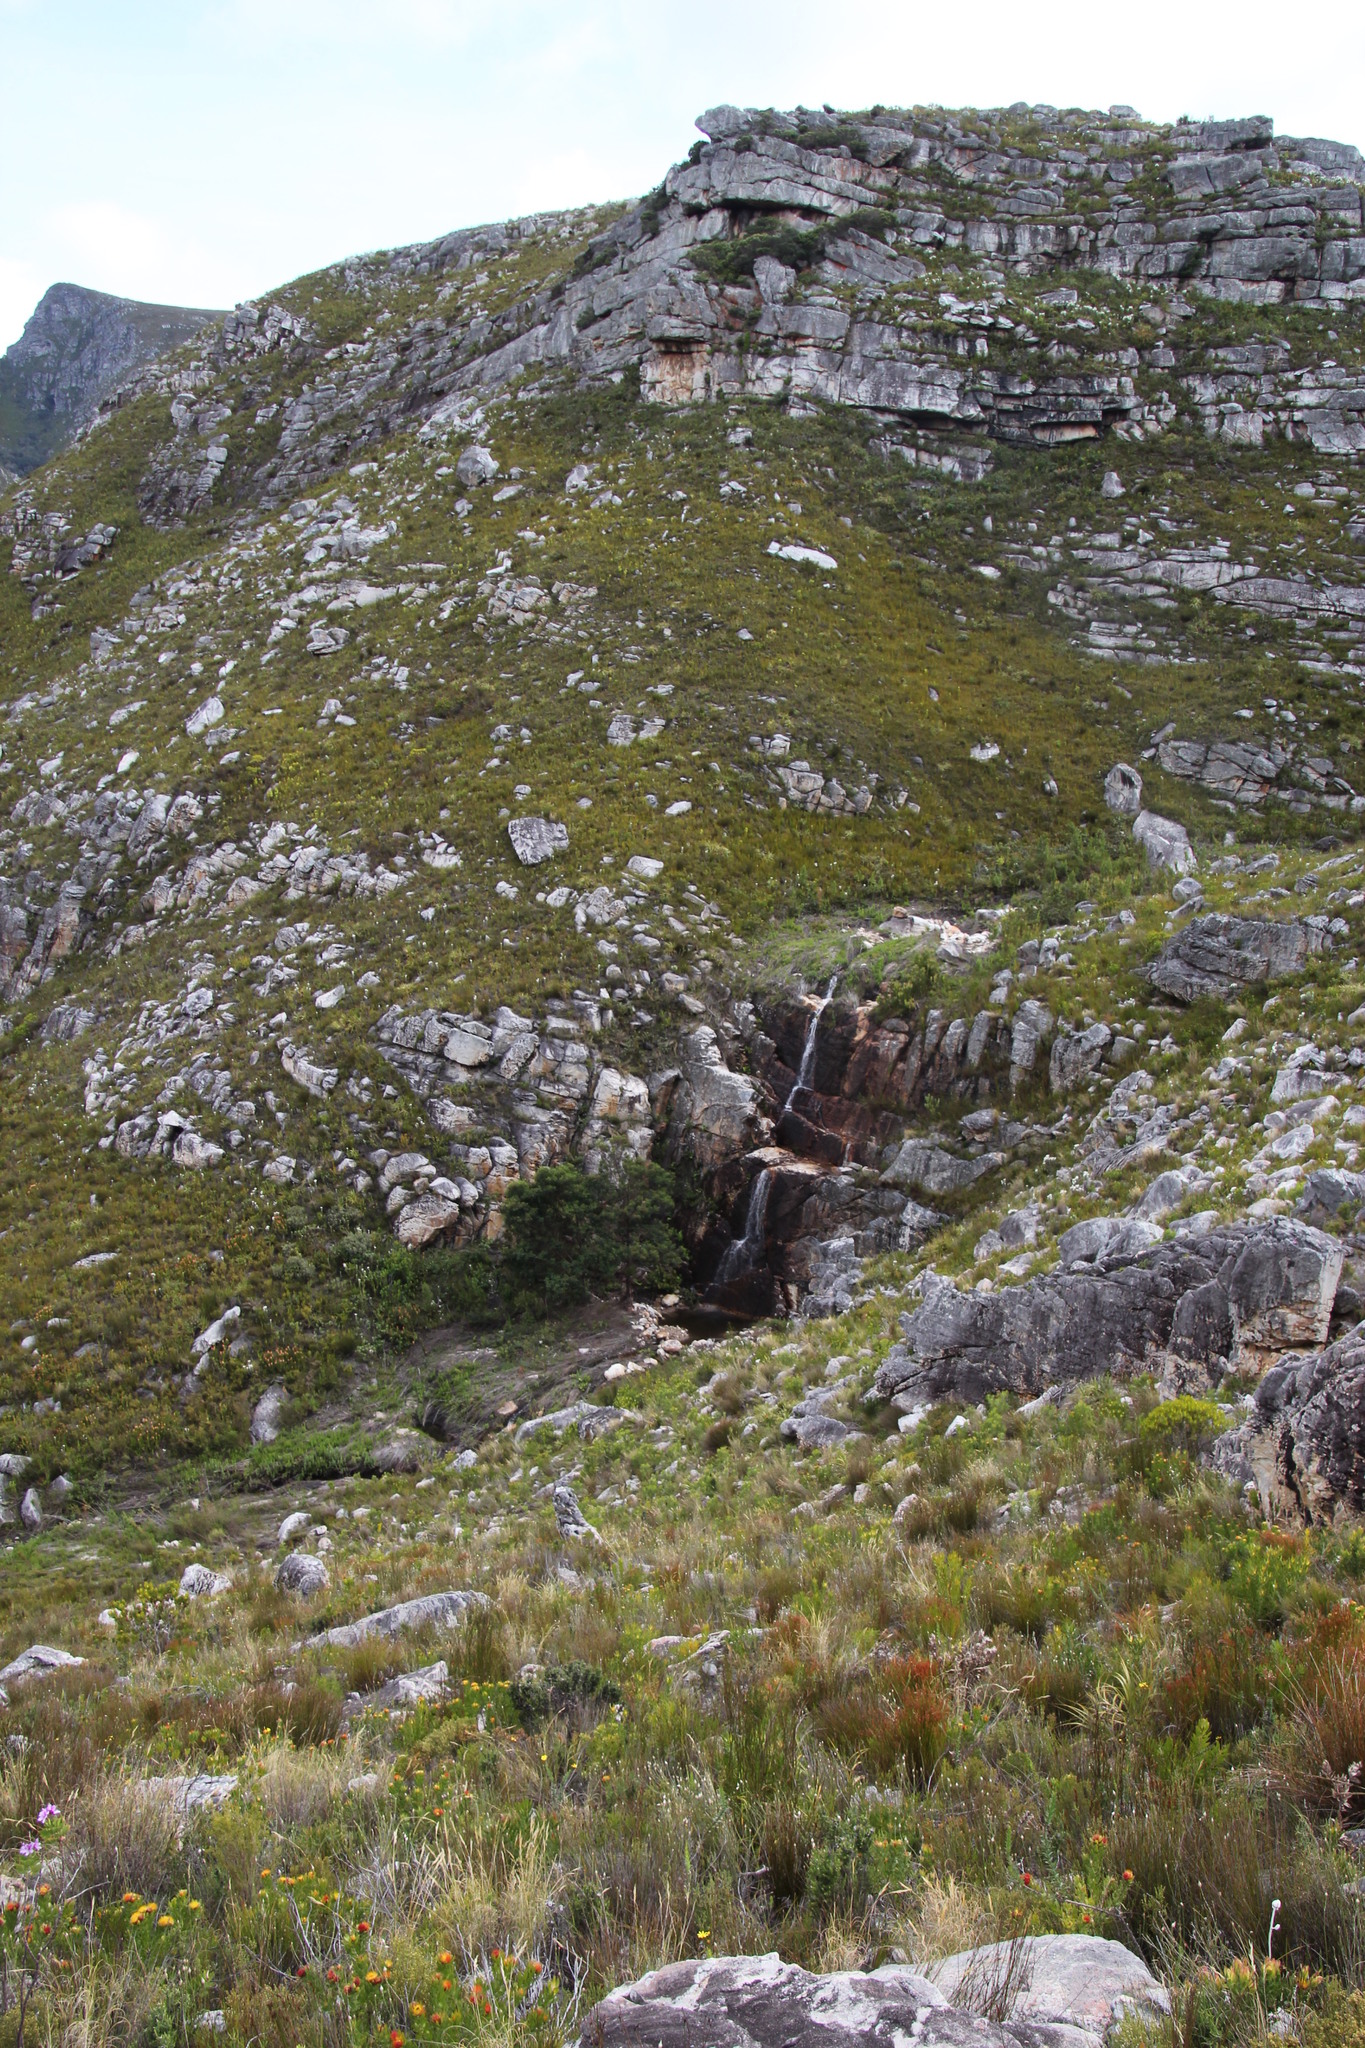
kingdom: Plantae
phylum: Tracheophyta
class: Magnoliopsida
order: Fabales
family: Fabaceae
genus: Acacia
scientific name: Acacia mearnsii
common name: Black wattle
